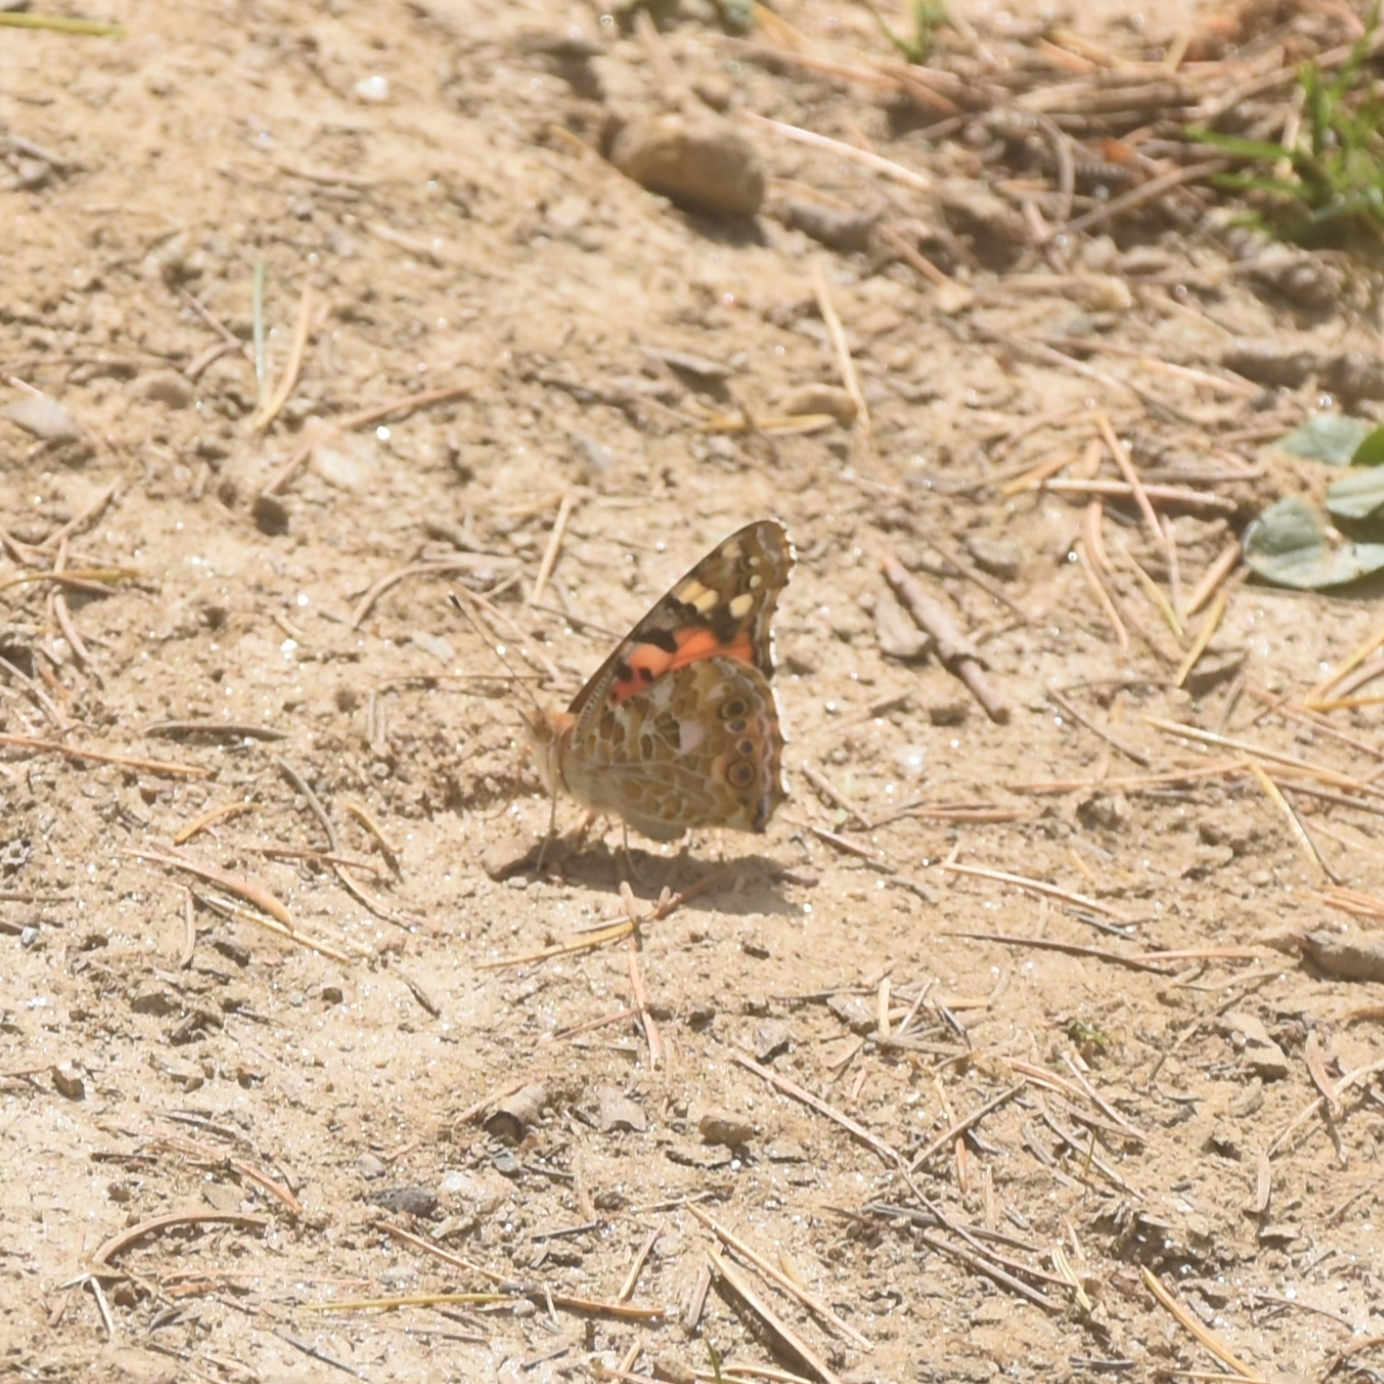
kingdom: Animalia
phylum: Arthropoda
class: Insecta
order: Lepidoptera
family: Nymphalidae
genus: Vanessa
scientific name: Vanessa cardui
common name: Painted lady
